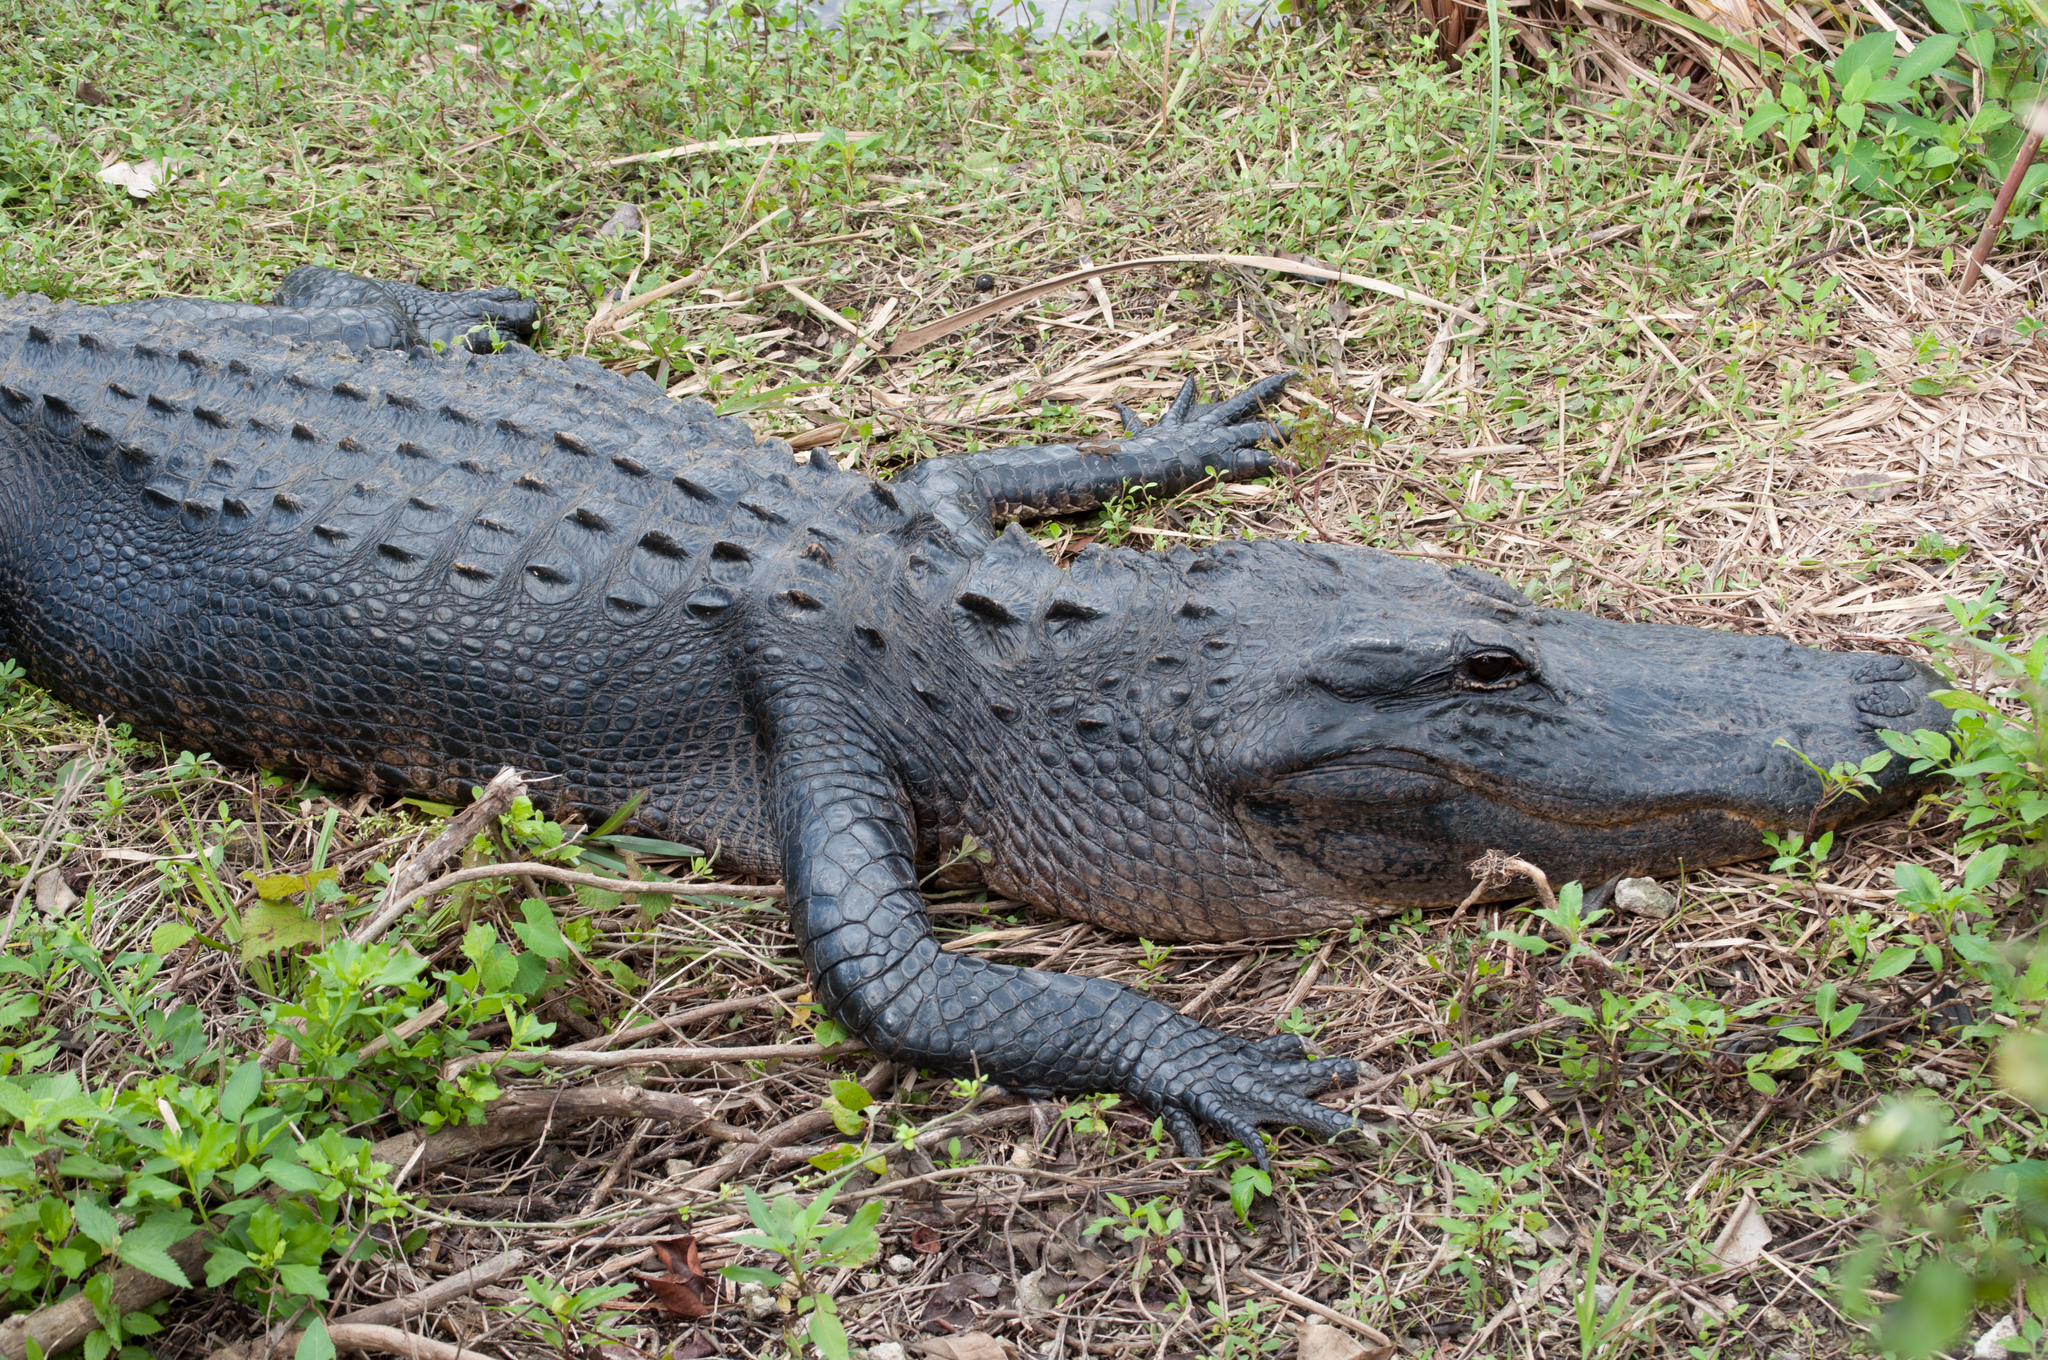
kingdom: Animalia
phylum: Chordata
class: Crocodylia
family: Alligatoridae
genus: Alligator
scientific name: Alligator mississippiensis
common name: American alligator
